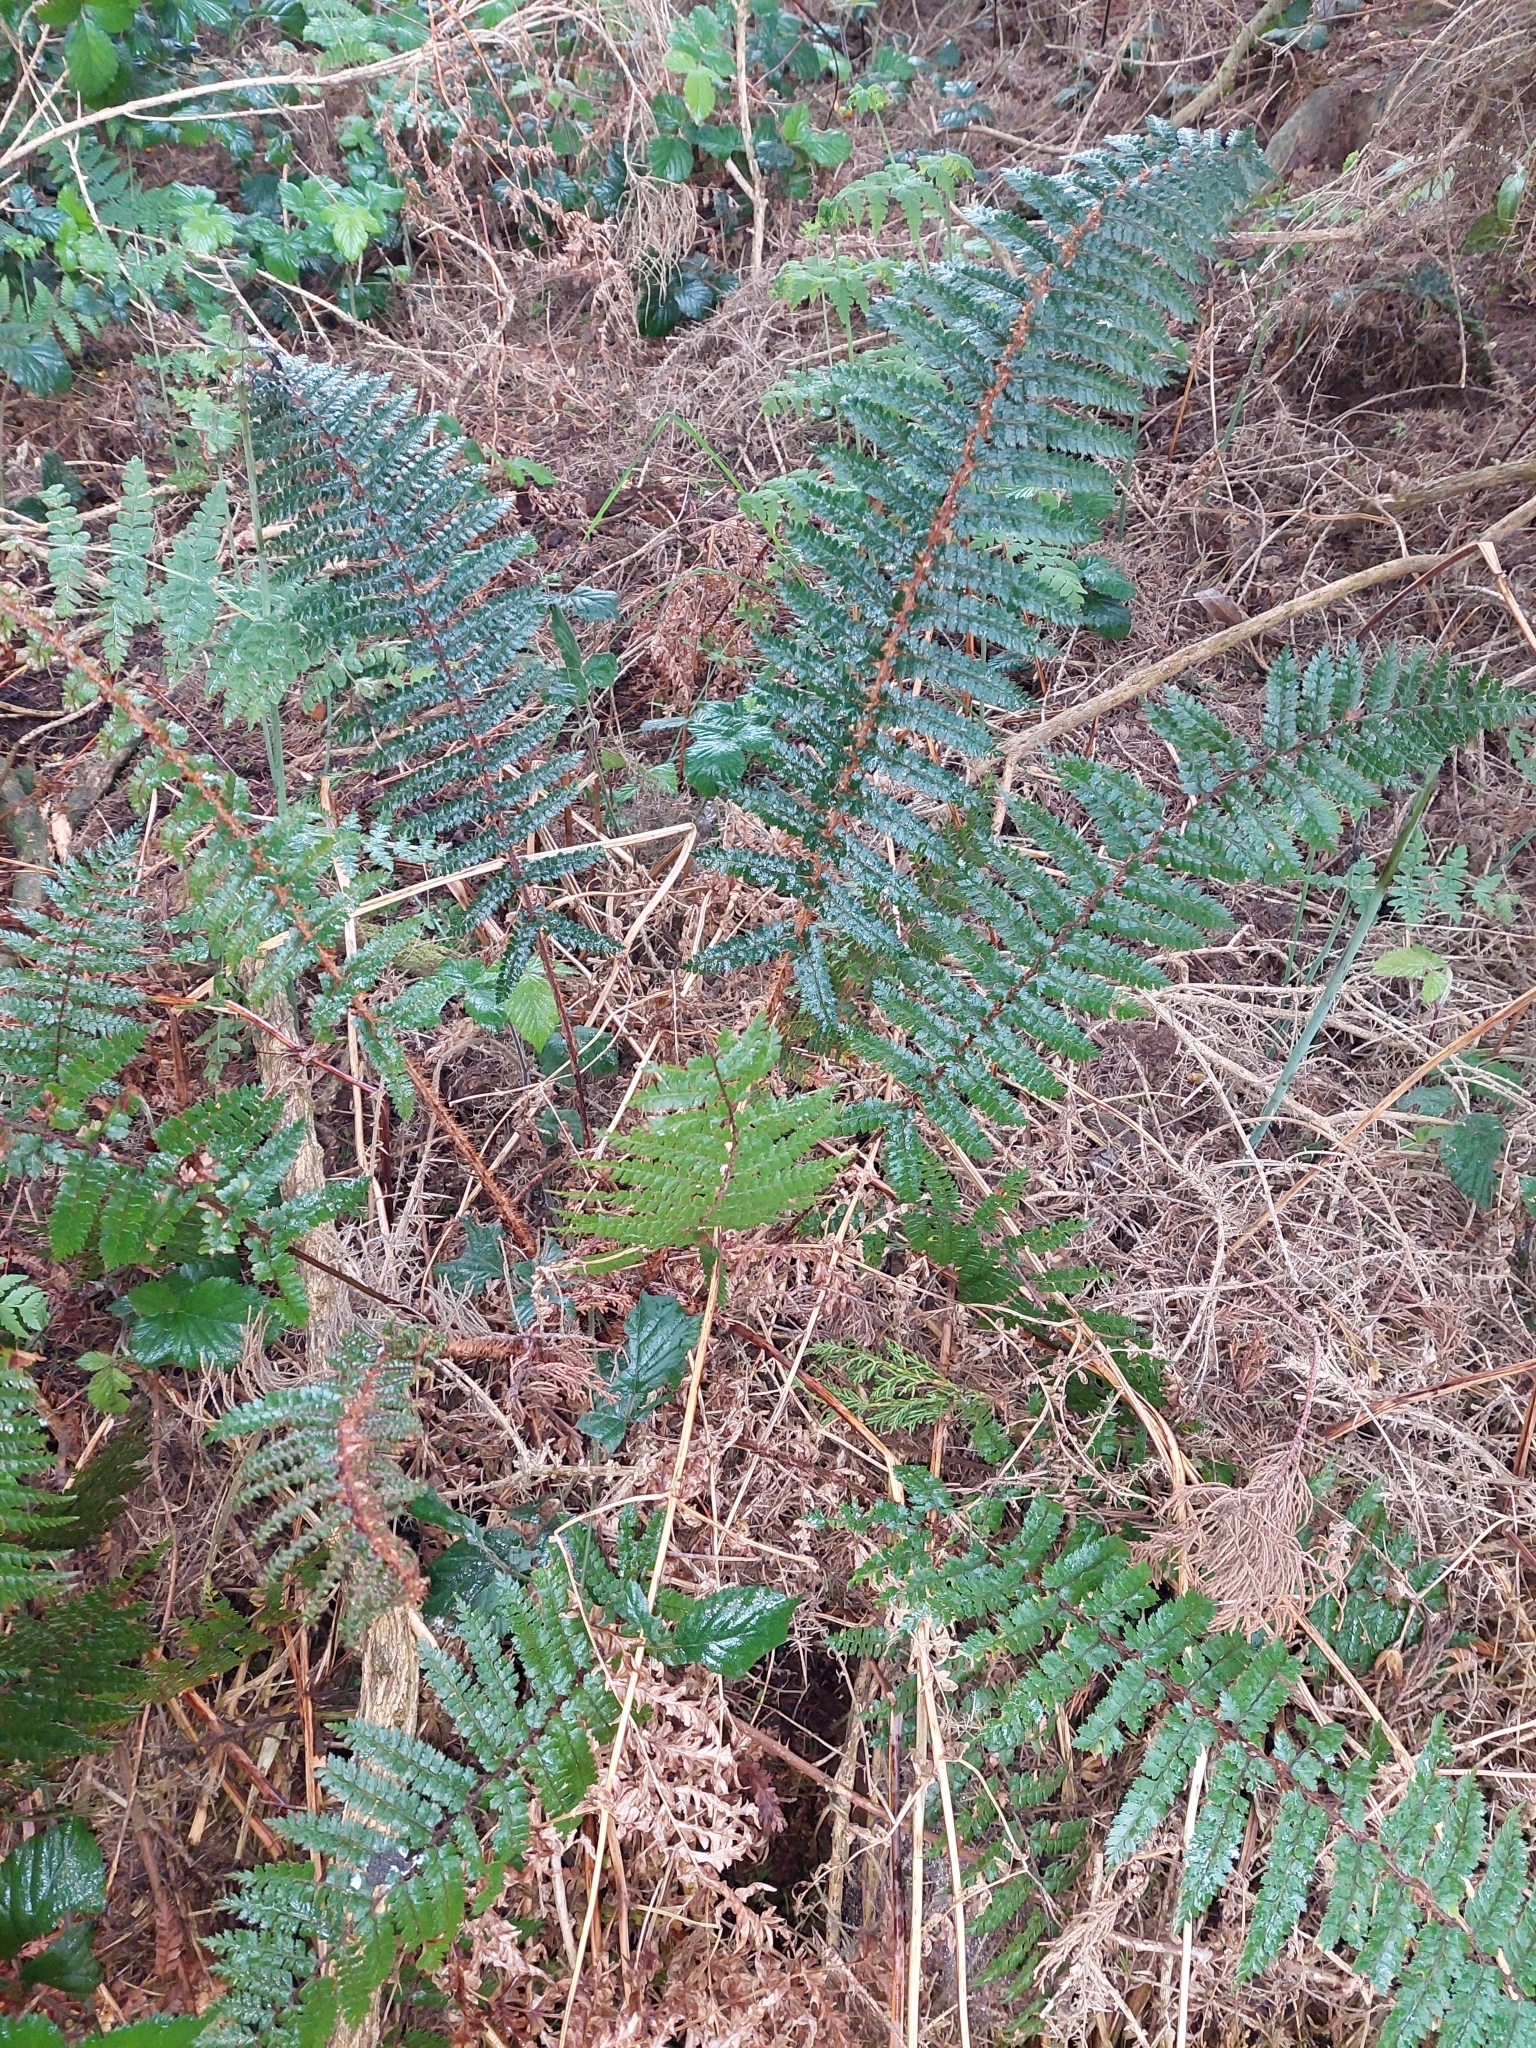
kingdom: Plantae
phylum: Tracheophyta
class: Polypodiopsida
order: Polypodiales
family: Dryopteridaceae
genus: Polystichum
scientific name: Polystichum vestitum
